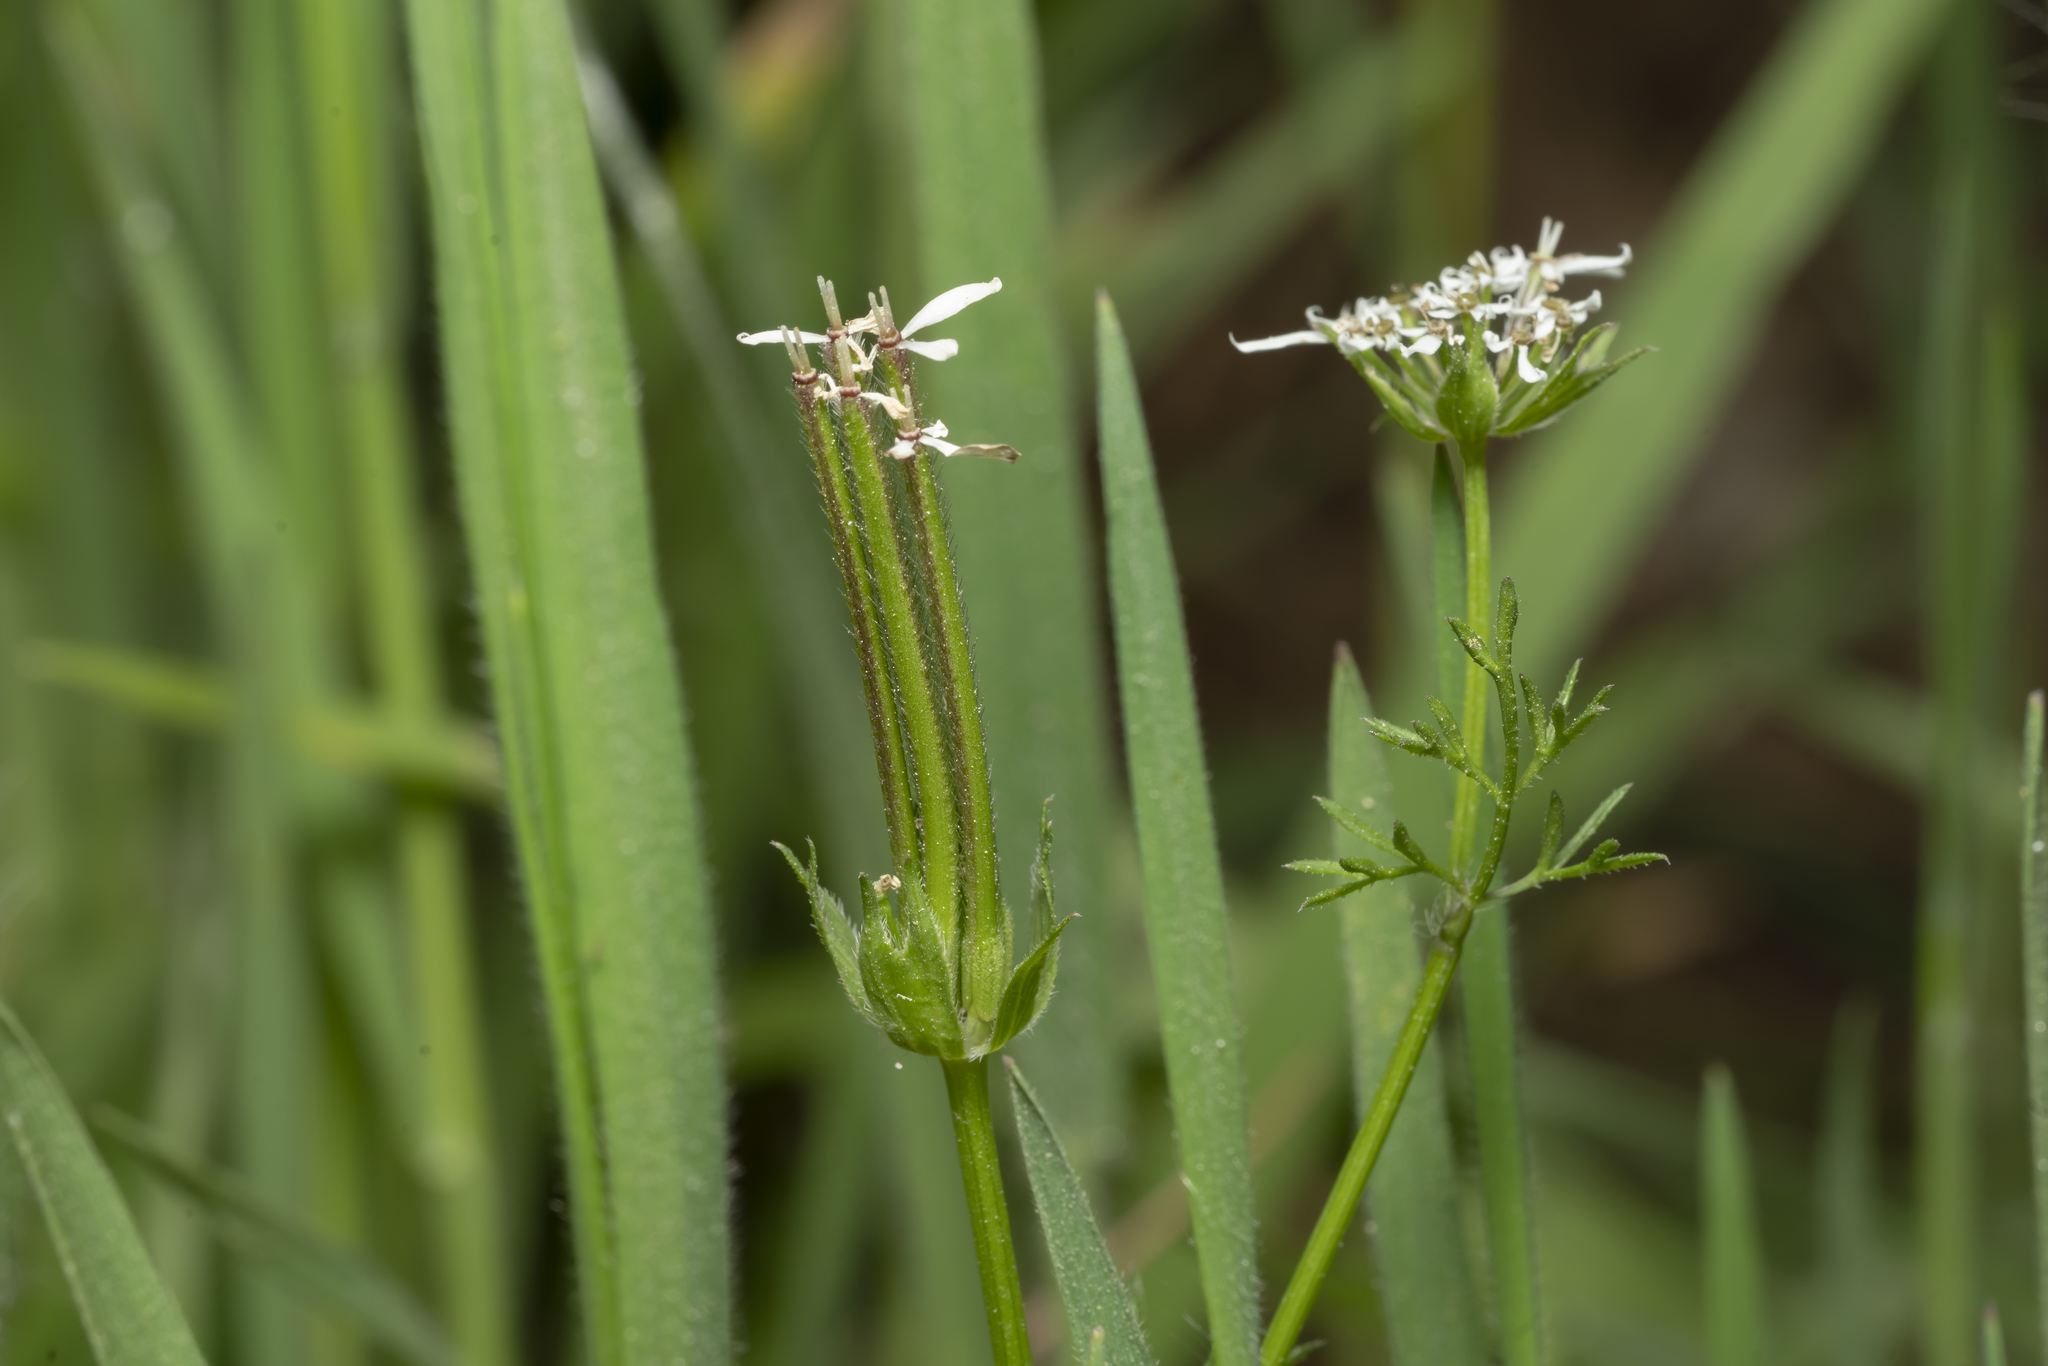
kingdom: Plantae
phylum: Tracheophyta
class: Magnoliopsida
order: Apiales
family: Apiaceae
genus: Scandix
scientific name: Scandix pecten-veneris
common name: Shepherd's-needle
